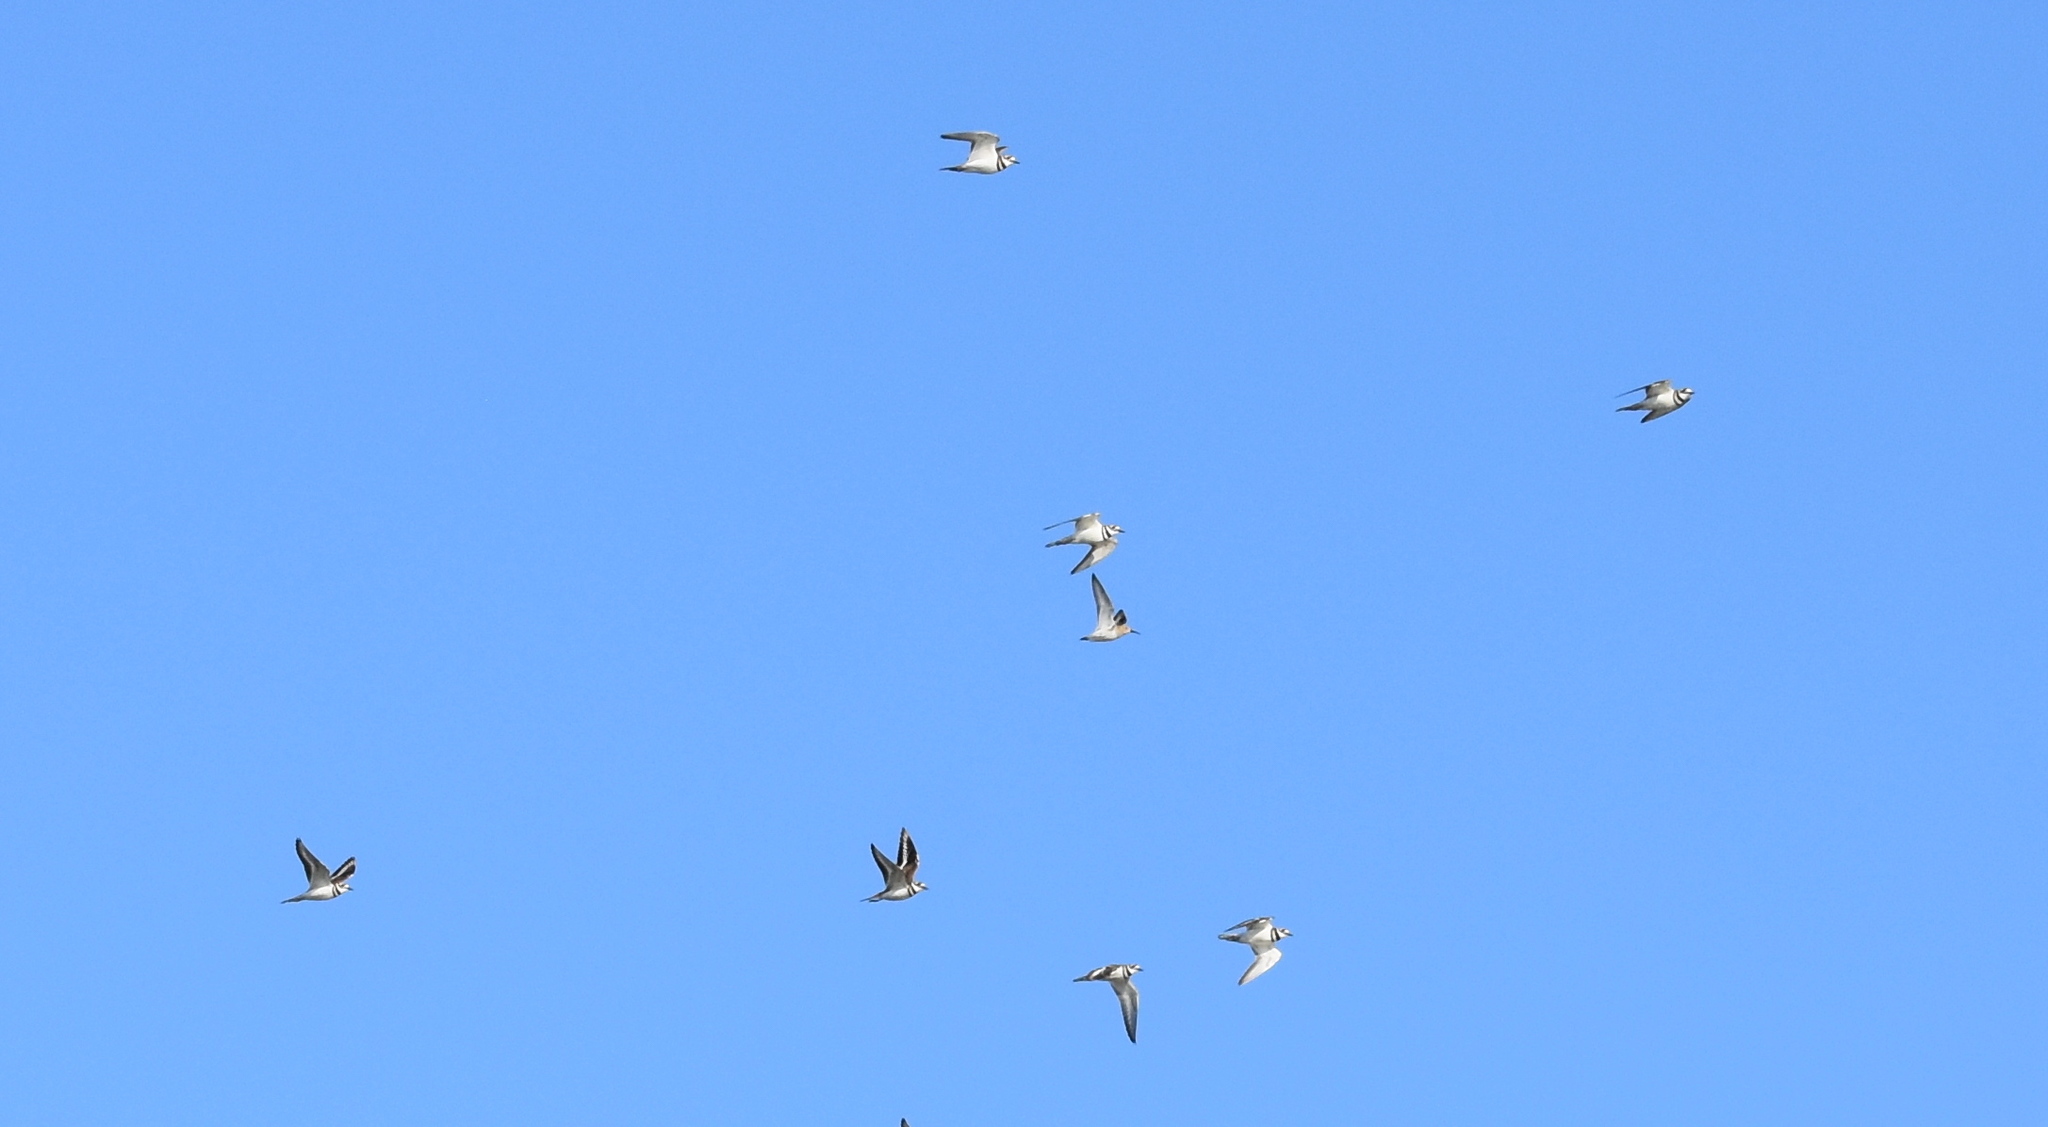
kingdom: Animalia
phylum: Chordata
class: Aves
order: Charadriiformes
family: Charadriidae
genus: Charadrius
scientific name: Charadrius vociferus
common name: Killdeer
